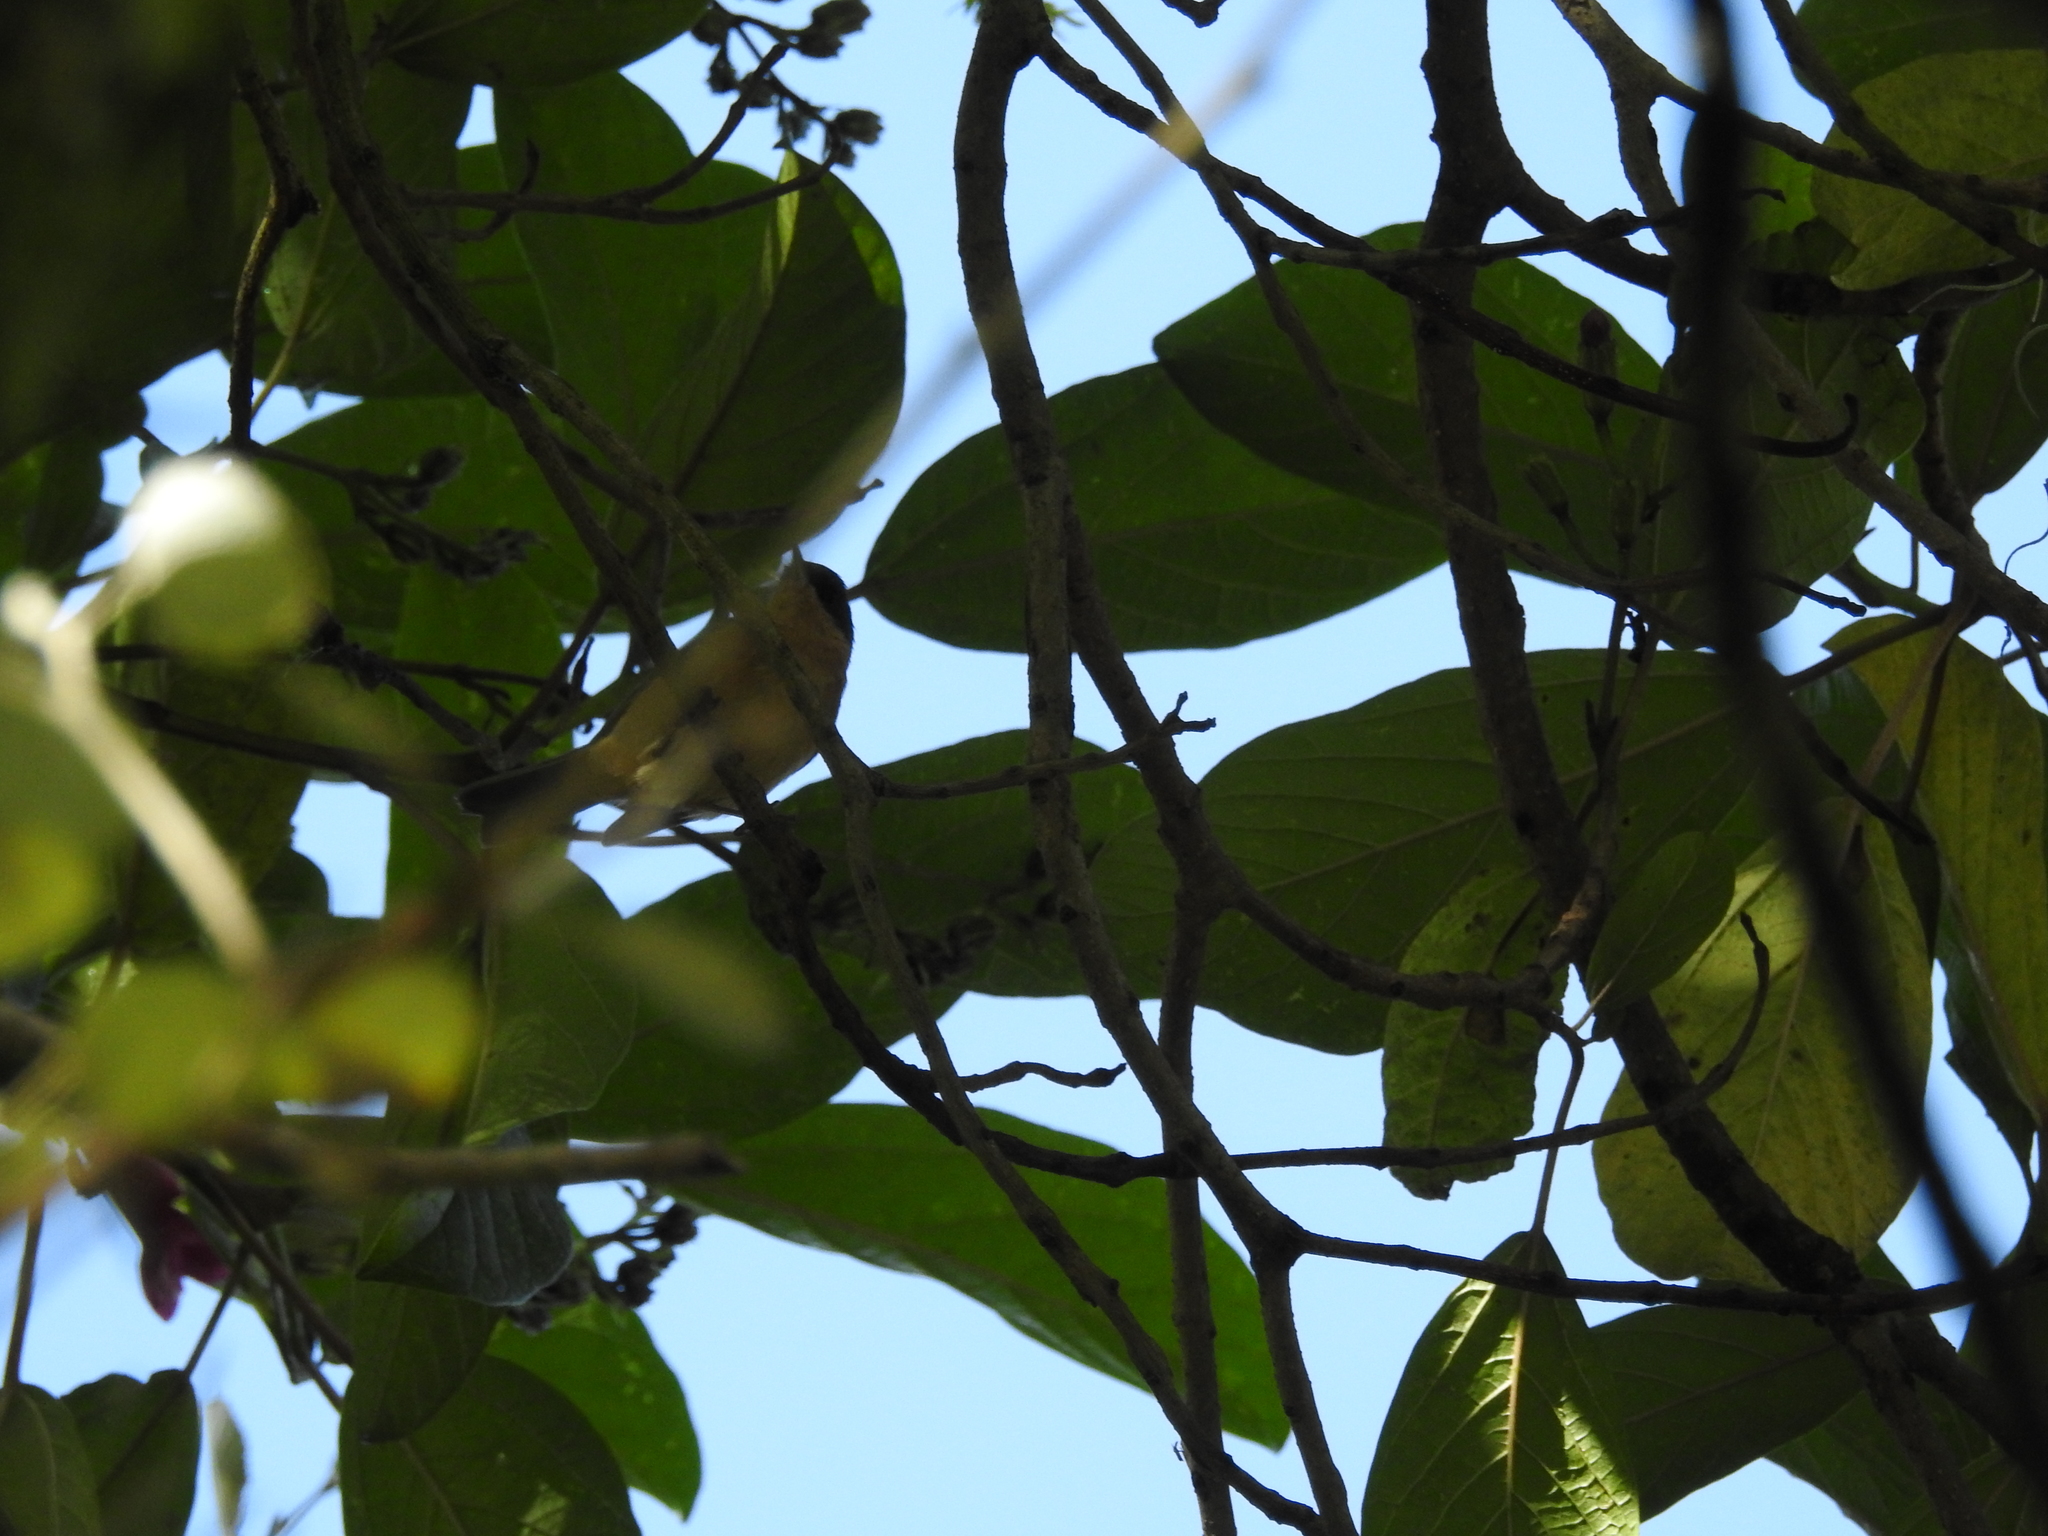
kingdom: Animalia
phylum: Chordata
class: Aves
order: Passeriformes
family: Thraupidae
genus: Diglossa
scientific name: Diglossa sittoides
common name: Rusty flowerpiercer
